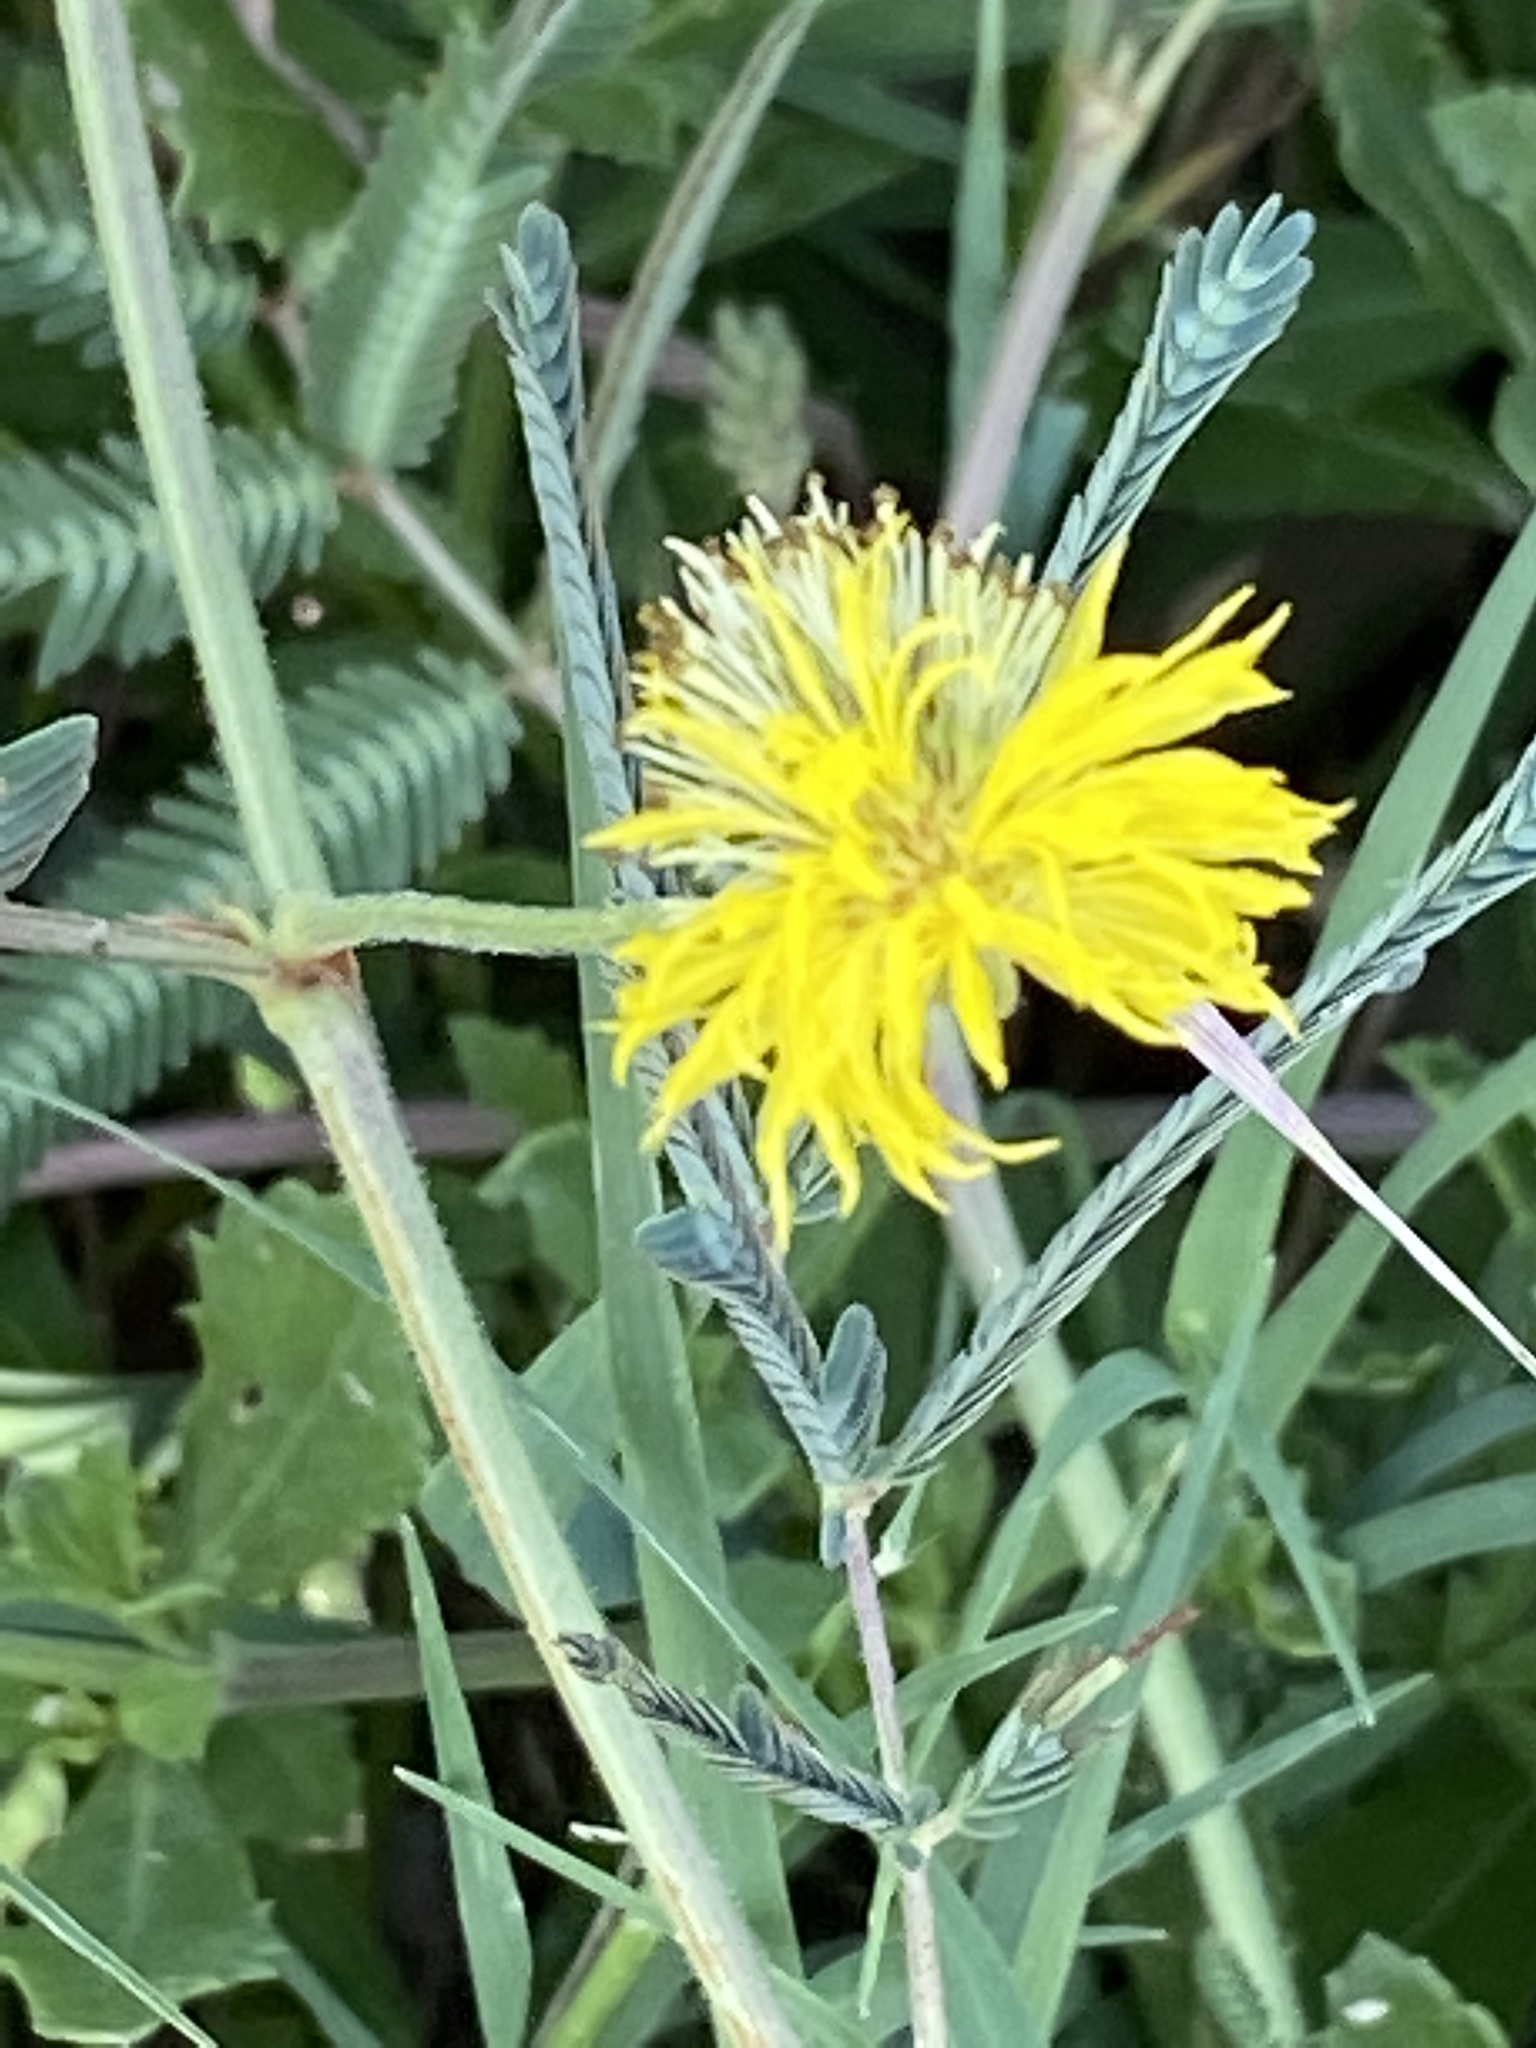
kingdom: Plantae
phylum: Tracheophyta
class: Magnoliopsida
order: Fabales
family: Fabaceae
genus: Neptunia
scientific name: Neptunia pubescens
